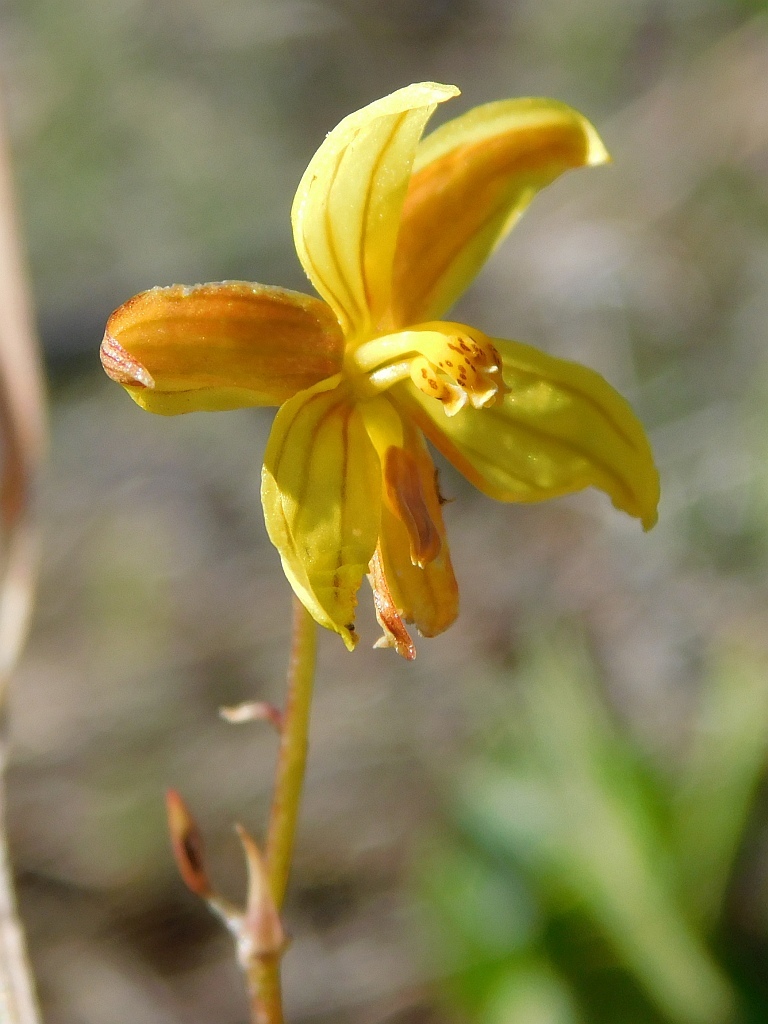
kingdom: Plantae
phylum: Tracheophyta
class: Liliopsida
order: Asparagales
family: Tecophilaeaceae
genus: Cyanella
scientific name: Cyanella lutea
